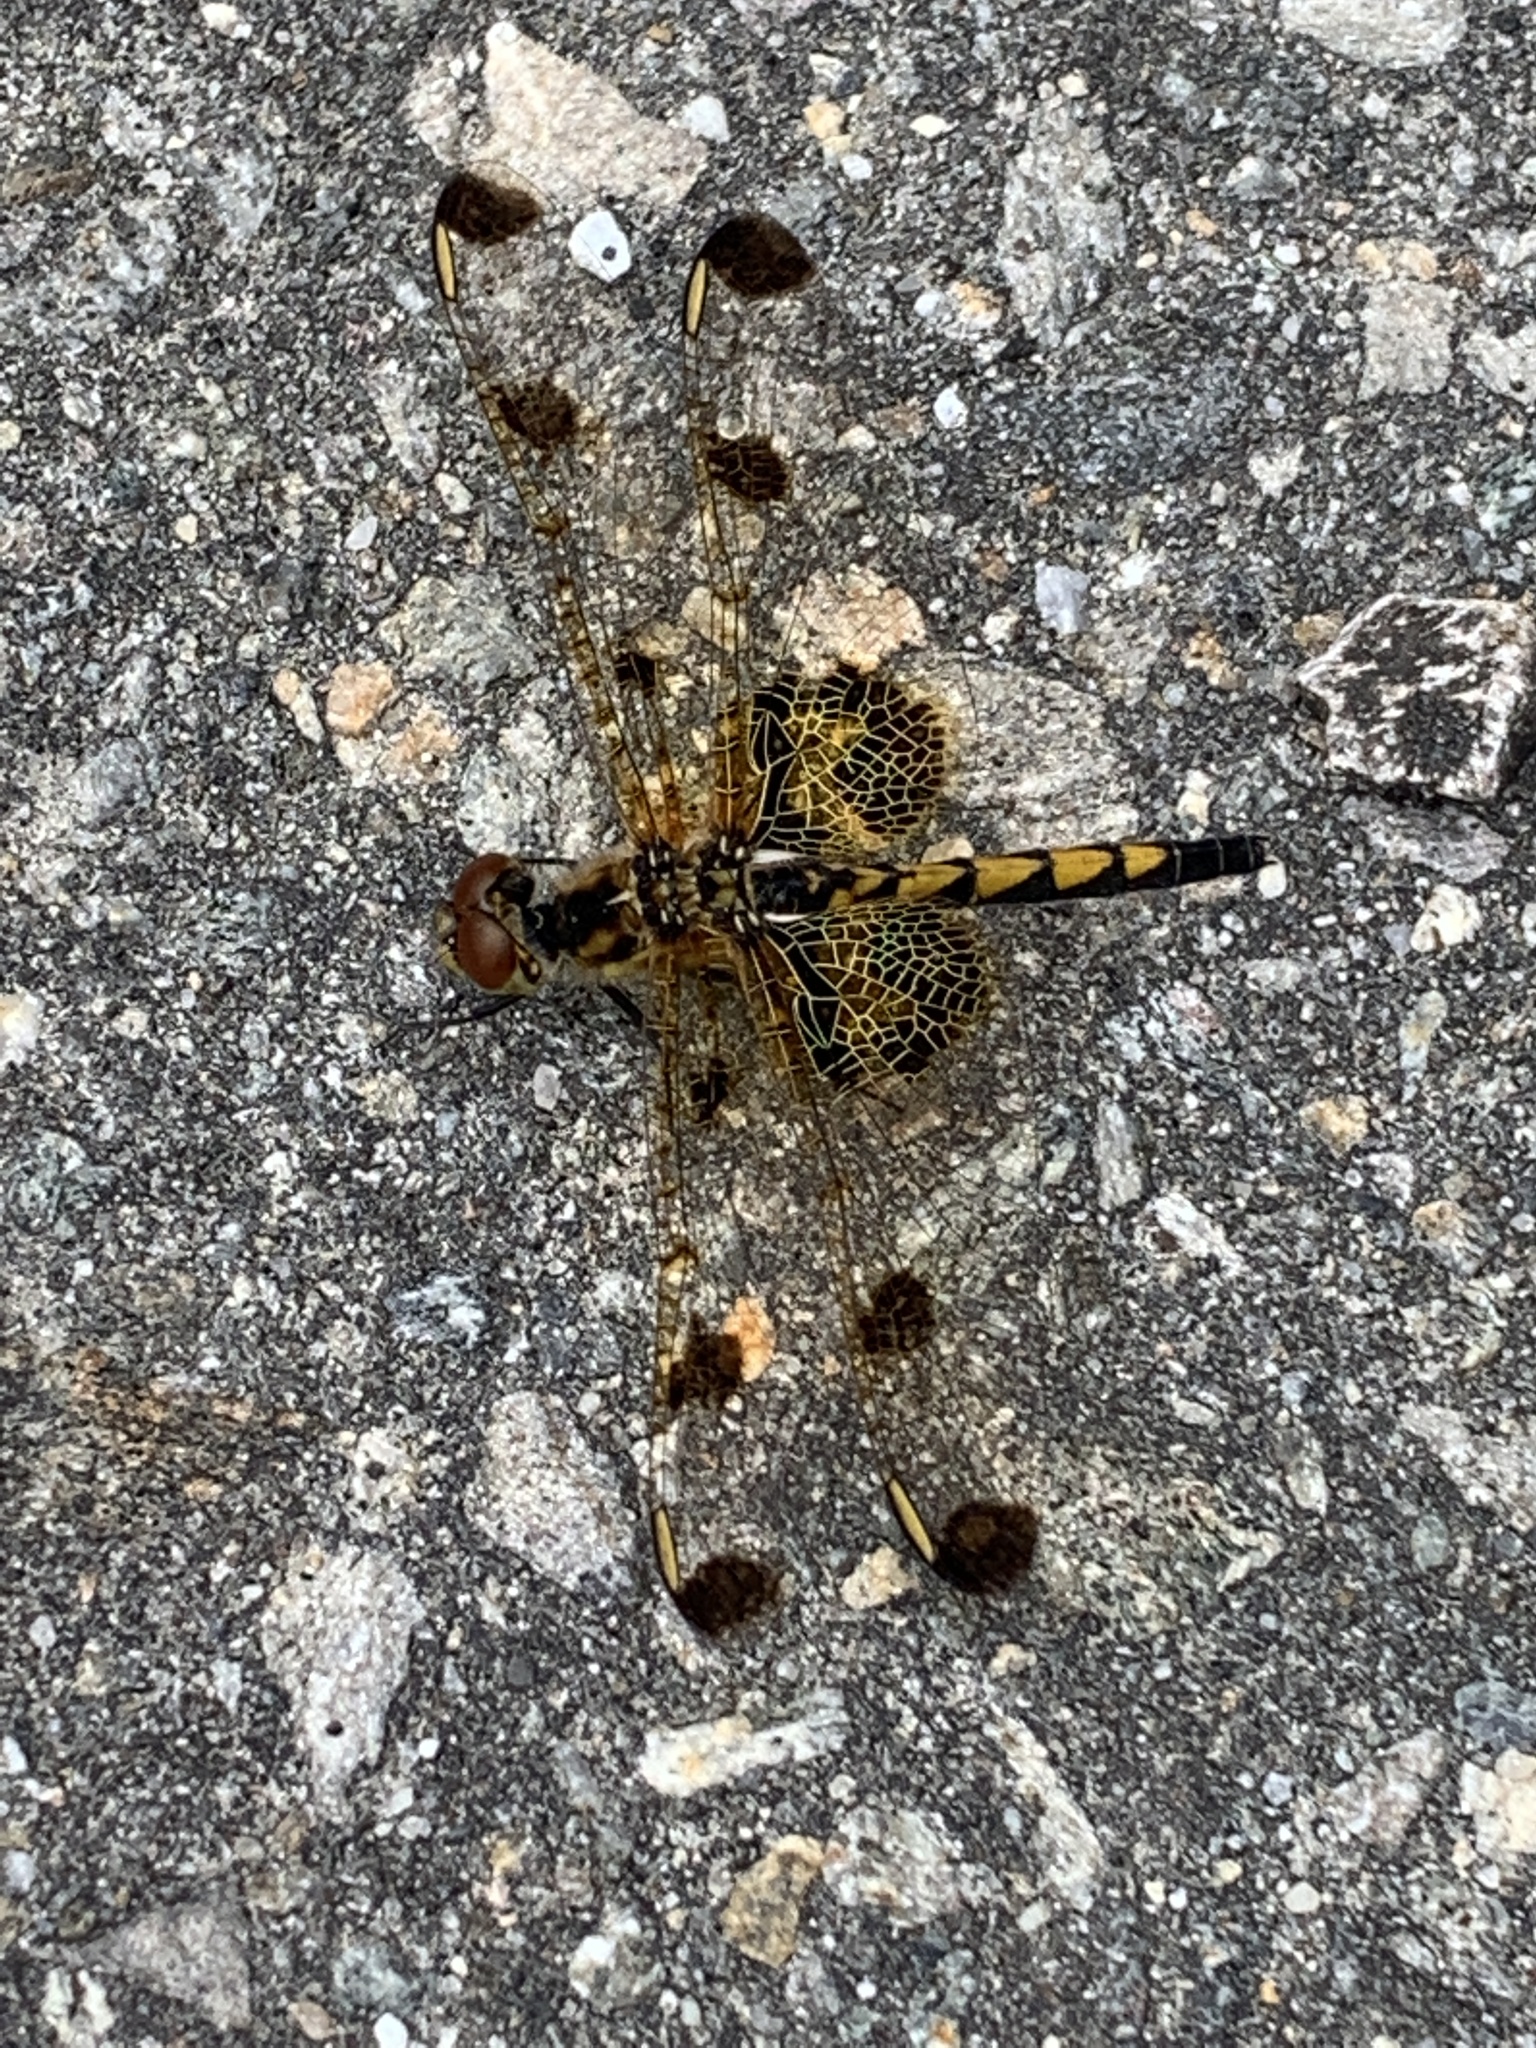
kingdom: Animalia
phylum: Arthropoda
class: Insecta
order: Odonata
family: Libellulidae
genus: Celithemis
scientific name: Celithemis elisa
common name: Calico pennant
